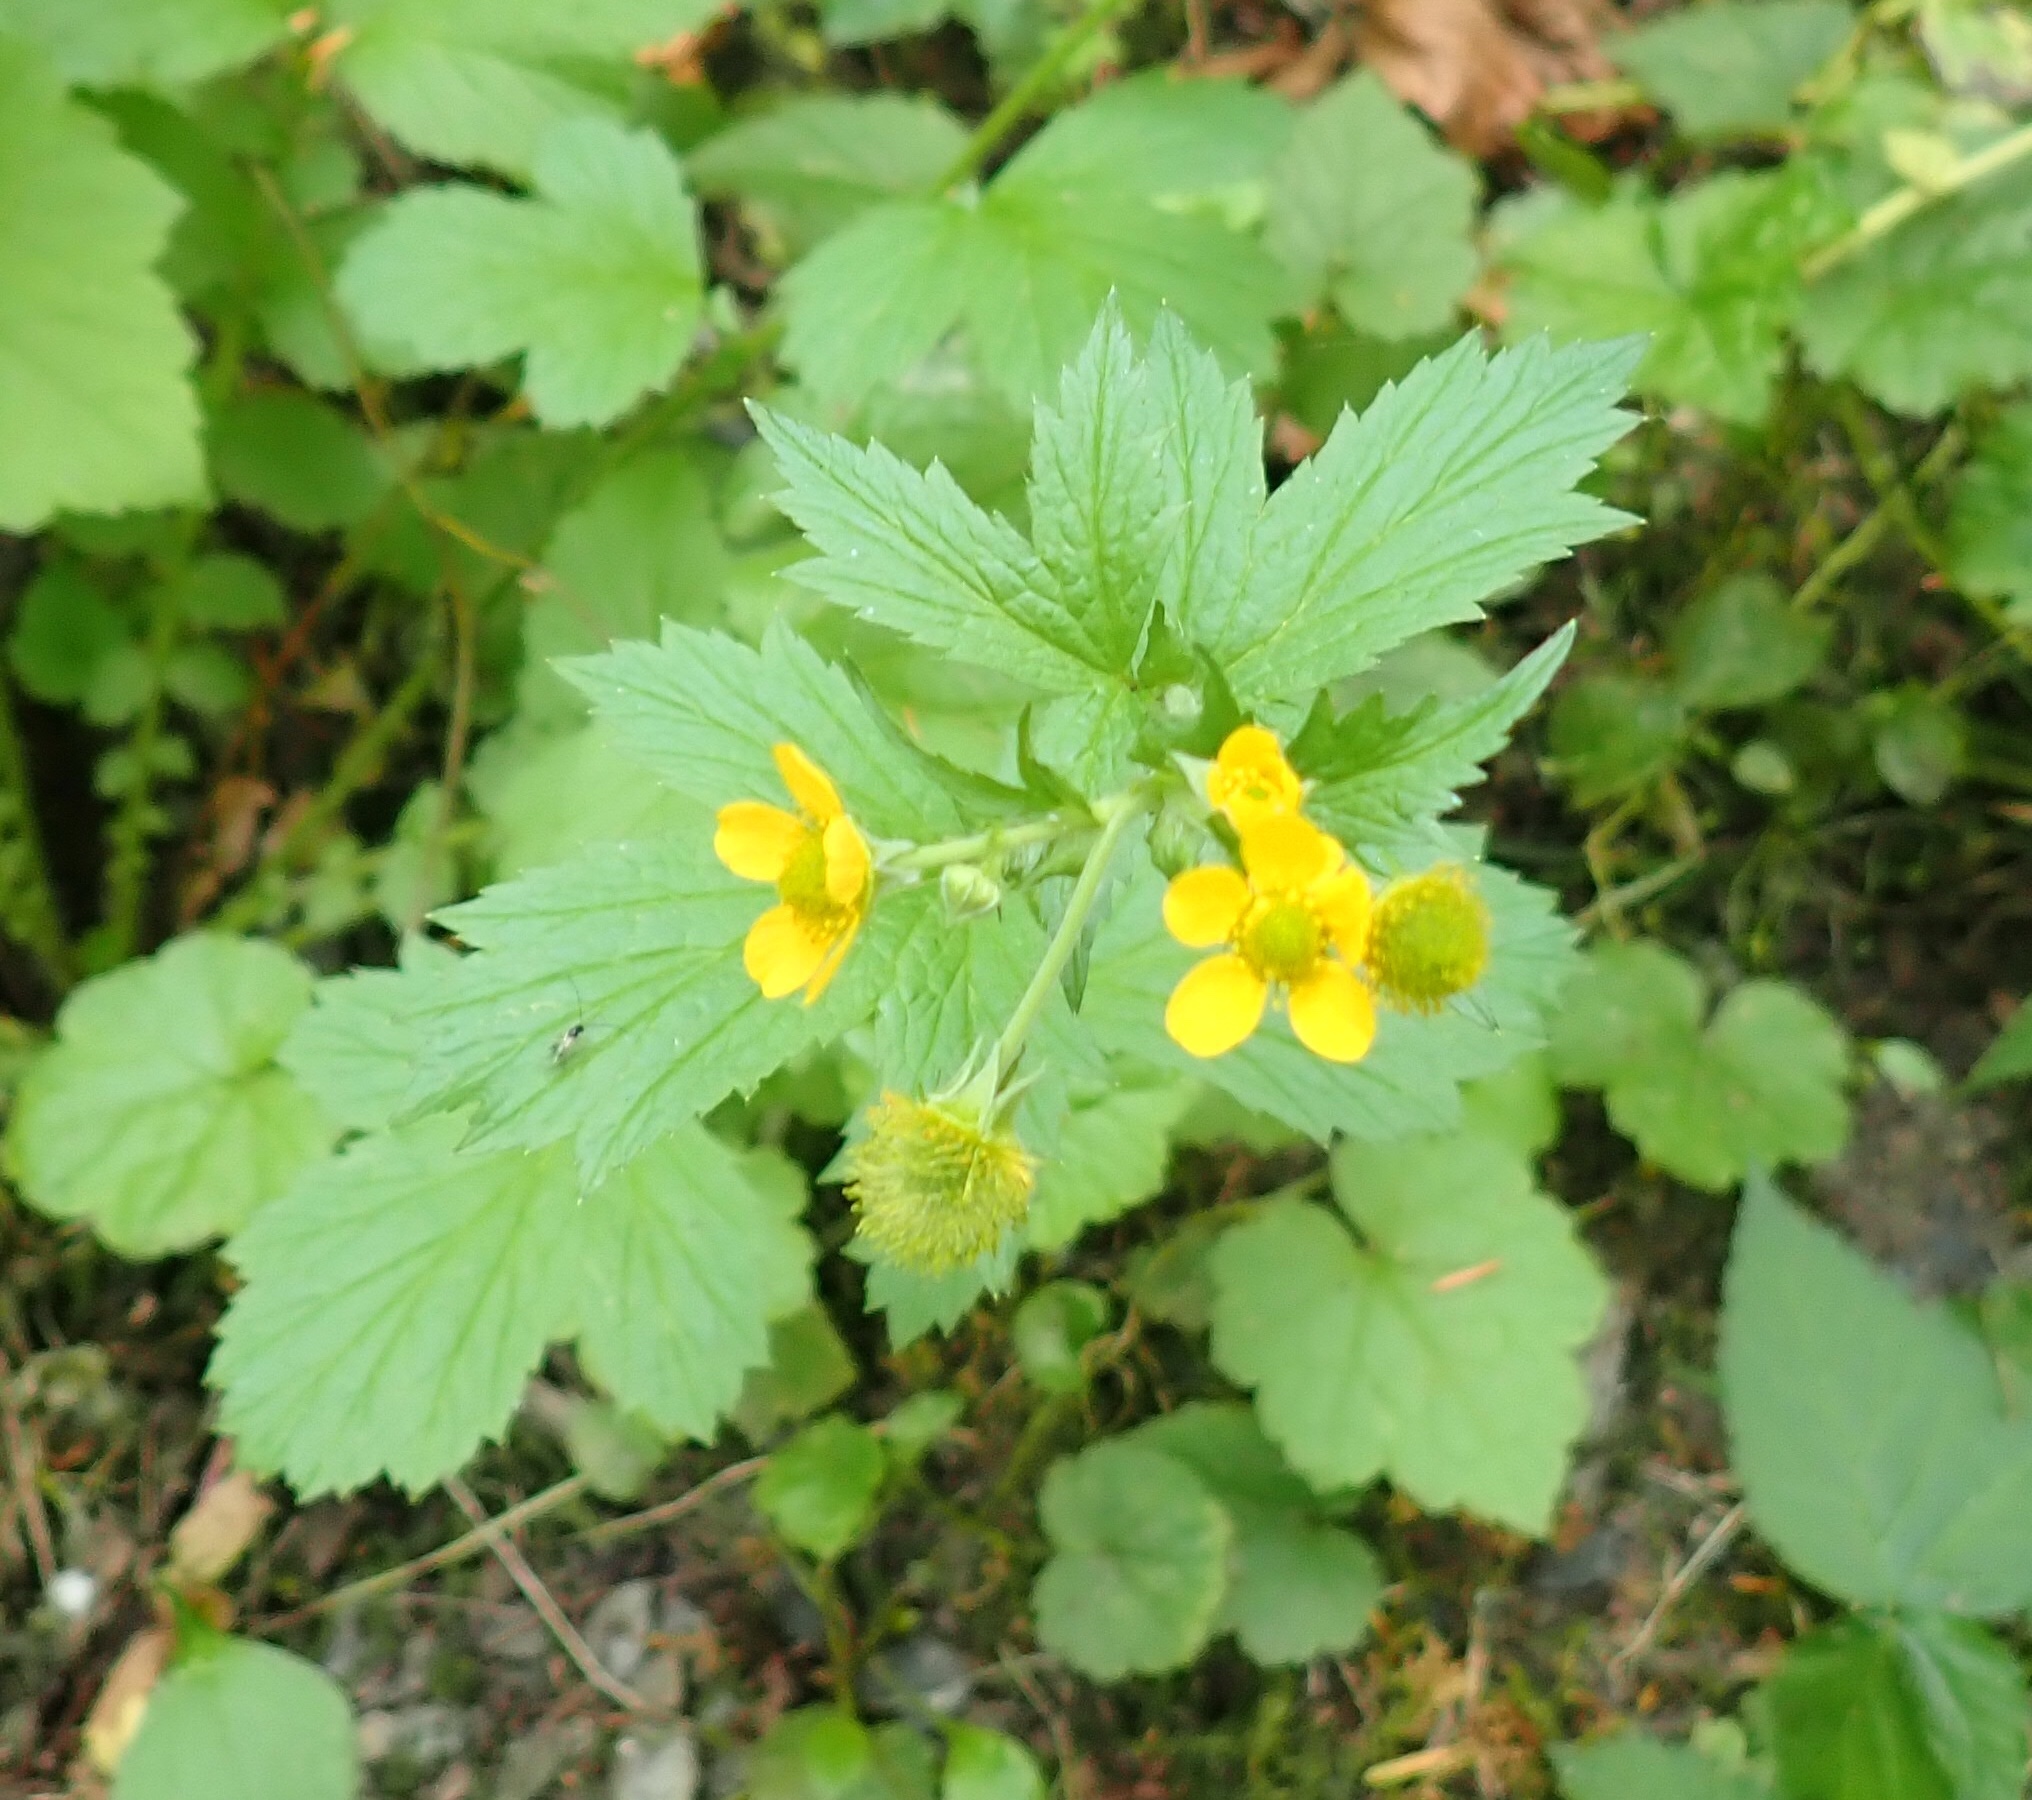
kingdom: Plantae
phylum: Tracheophyta
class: Magnoliopsida
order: Rosales
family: Rosaceae
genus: Geum
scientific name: Geum macrophyllum
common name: Large-leaved avens
